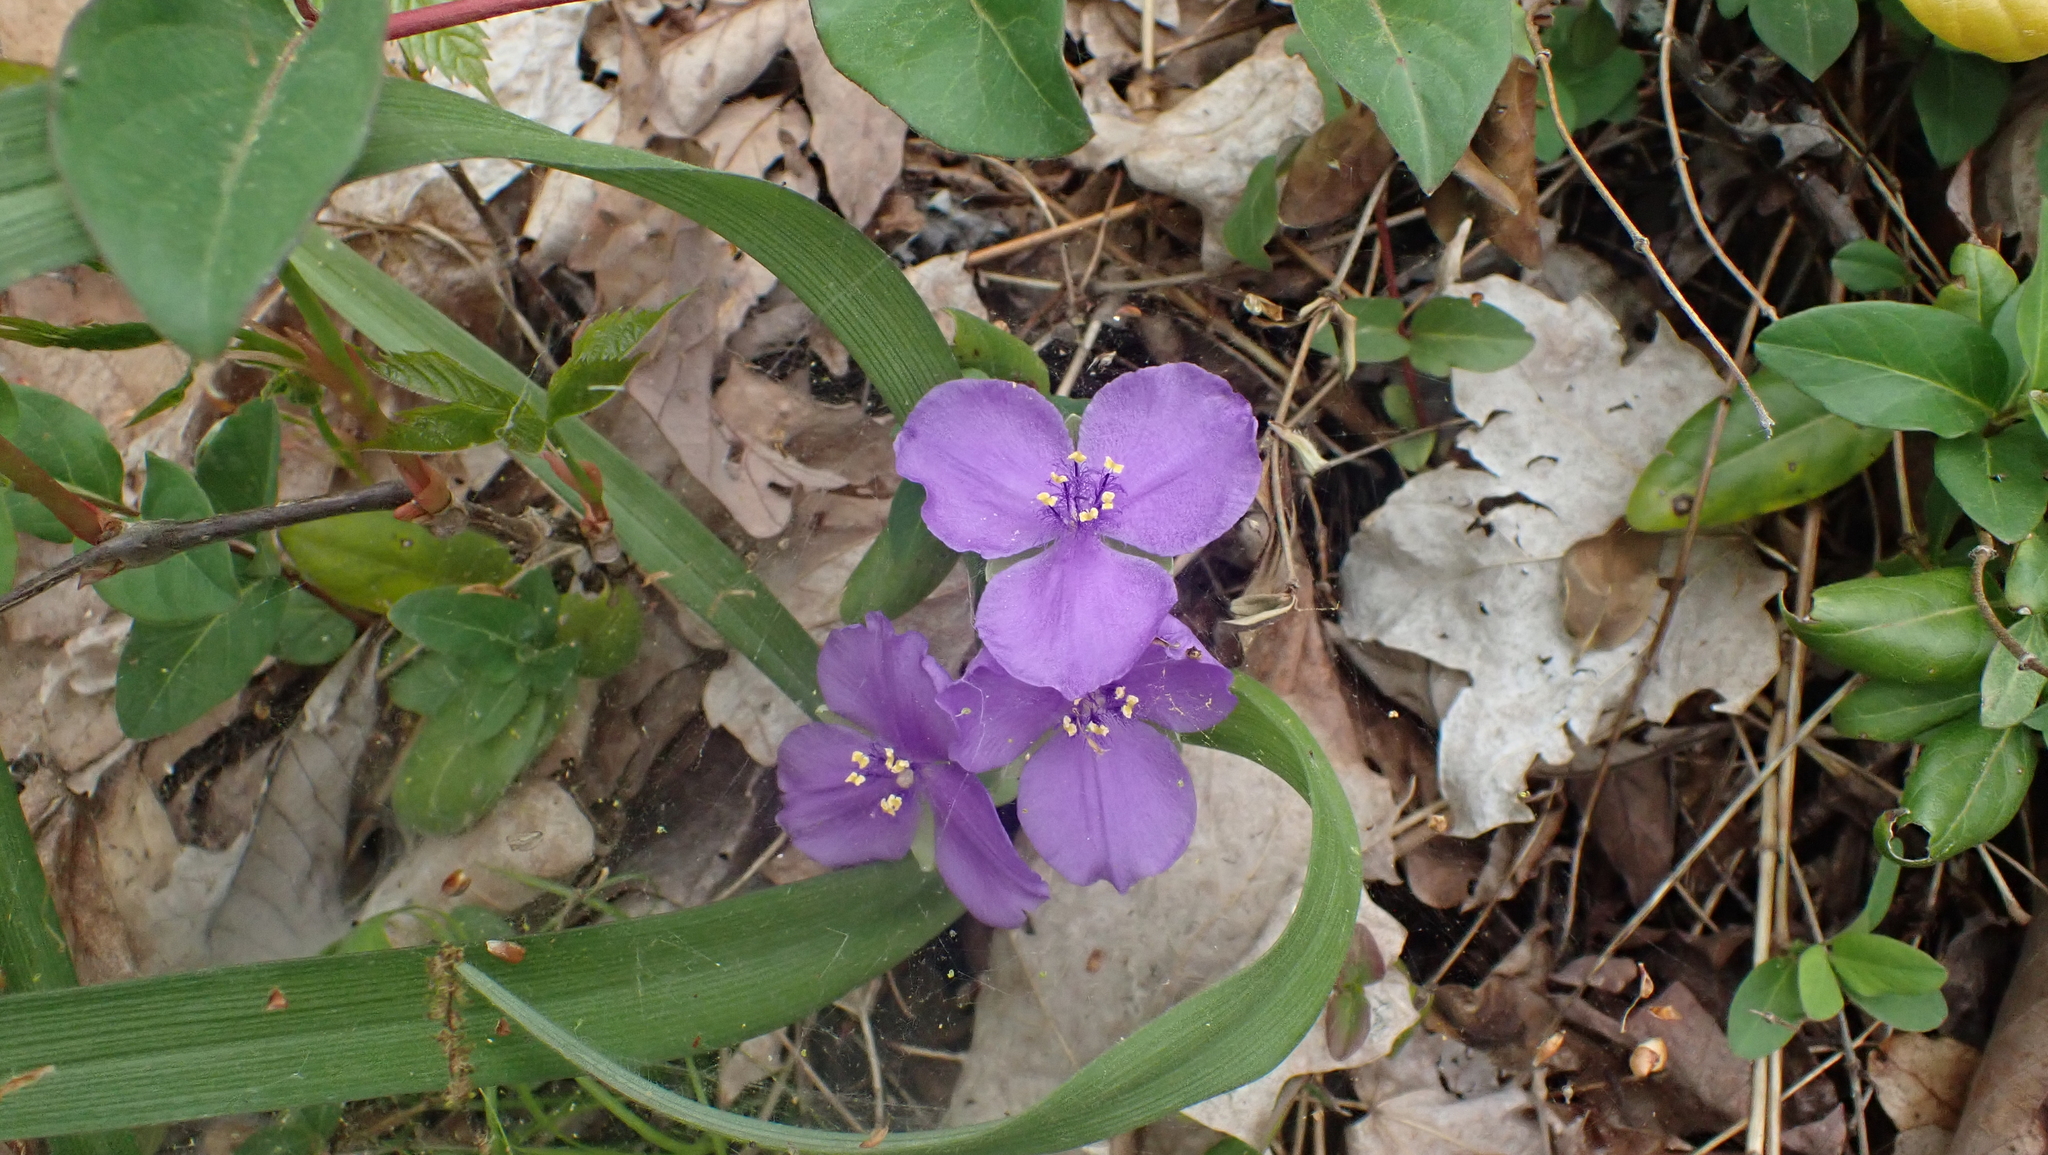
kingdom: Plantae
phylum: Tracheophyta
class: Liliopsida
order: Commelinales
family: Commelinaceae
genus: Tradescantia
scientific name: Tradescantia virginiana
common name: Spiderwort
